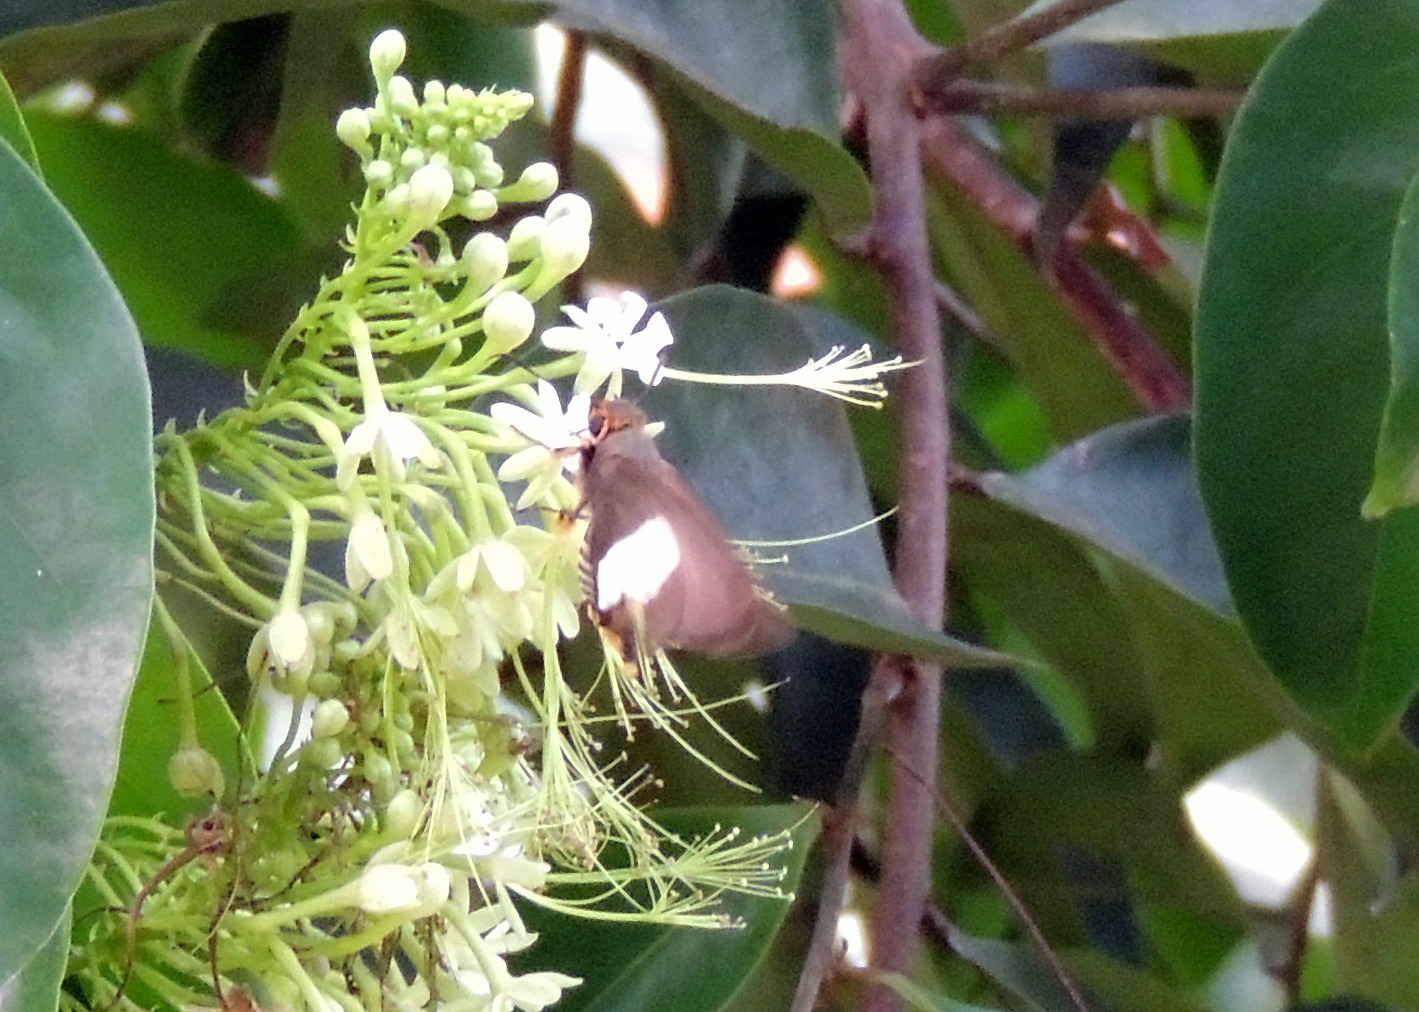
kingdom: Animalia
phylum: Arthropoda
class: Insecta
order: Lepidoptera
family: Hesperiidae
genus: Coeliades
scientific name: Coeliades forestan
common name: Striped policeman
